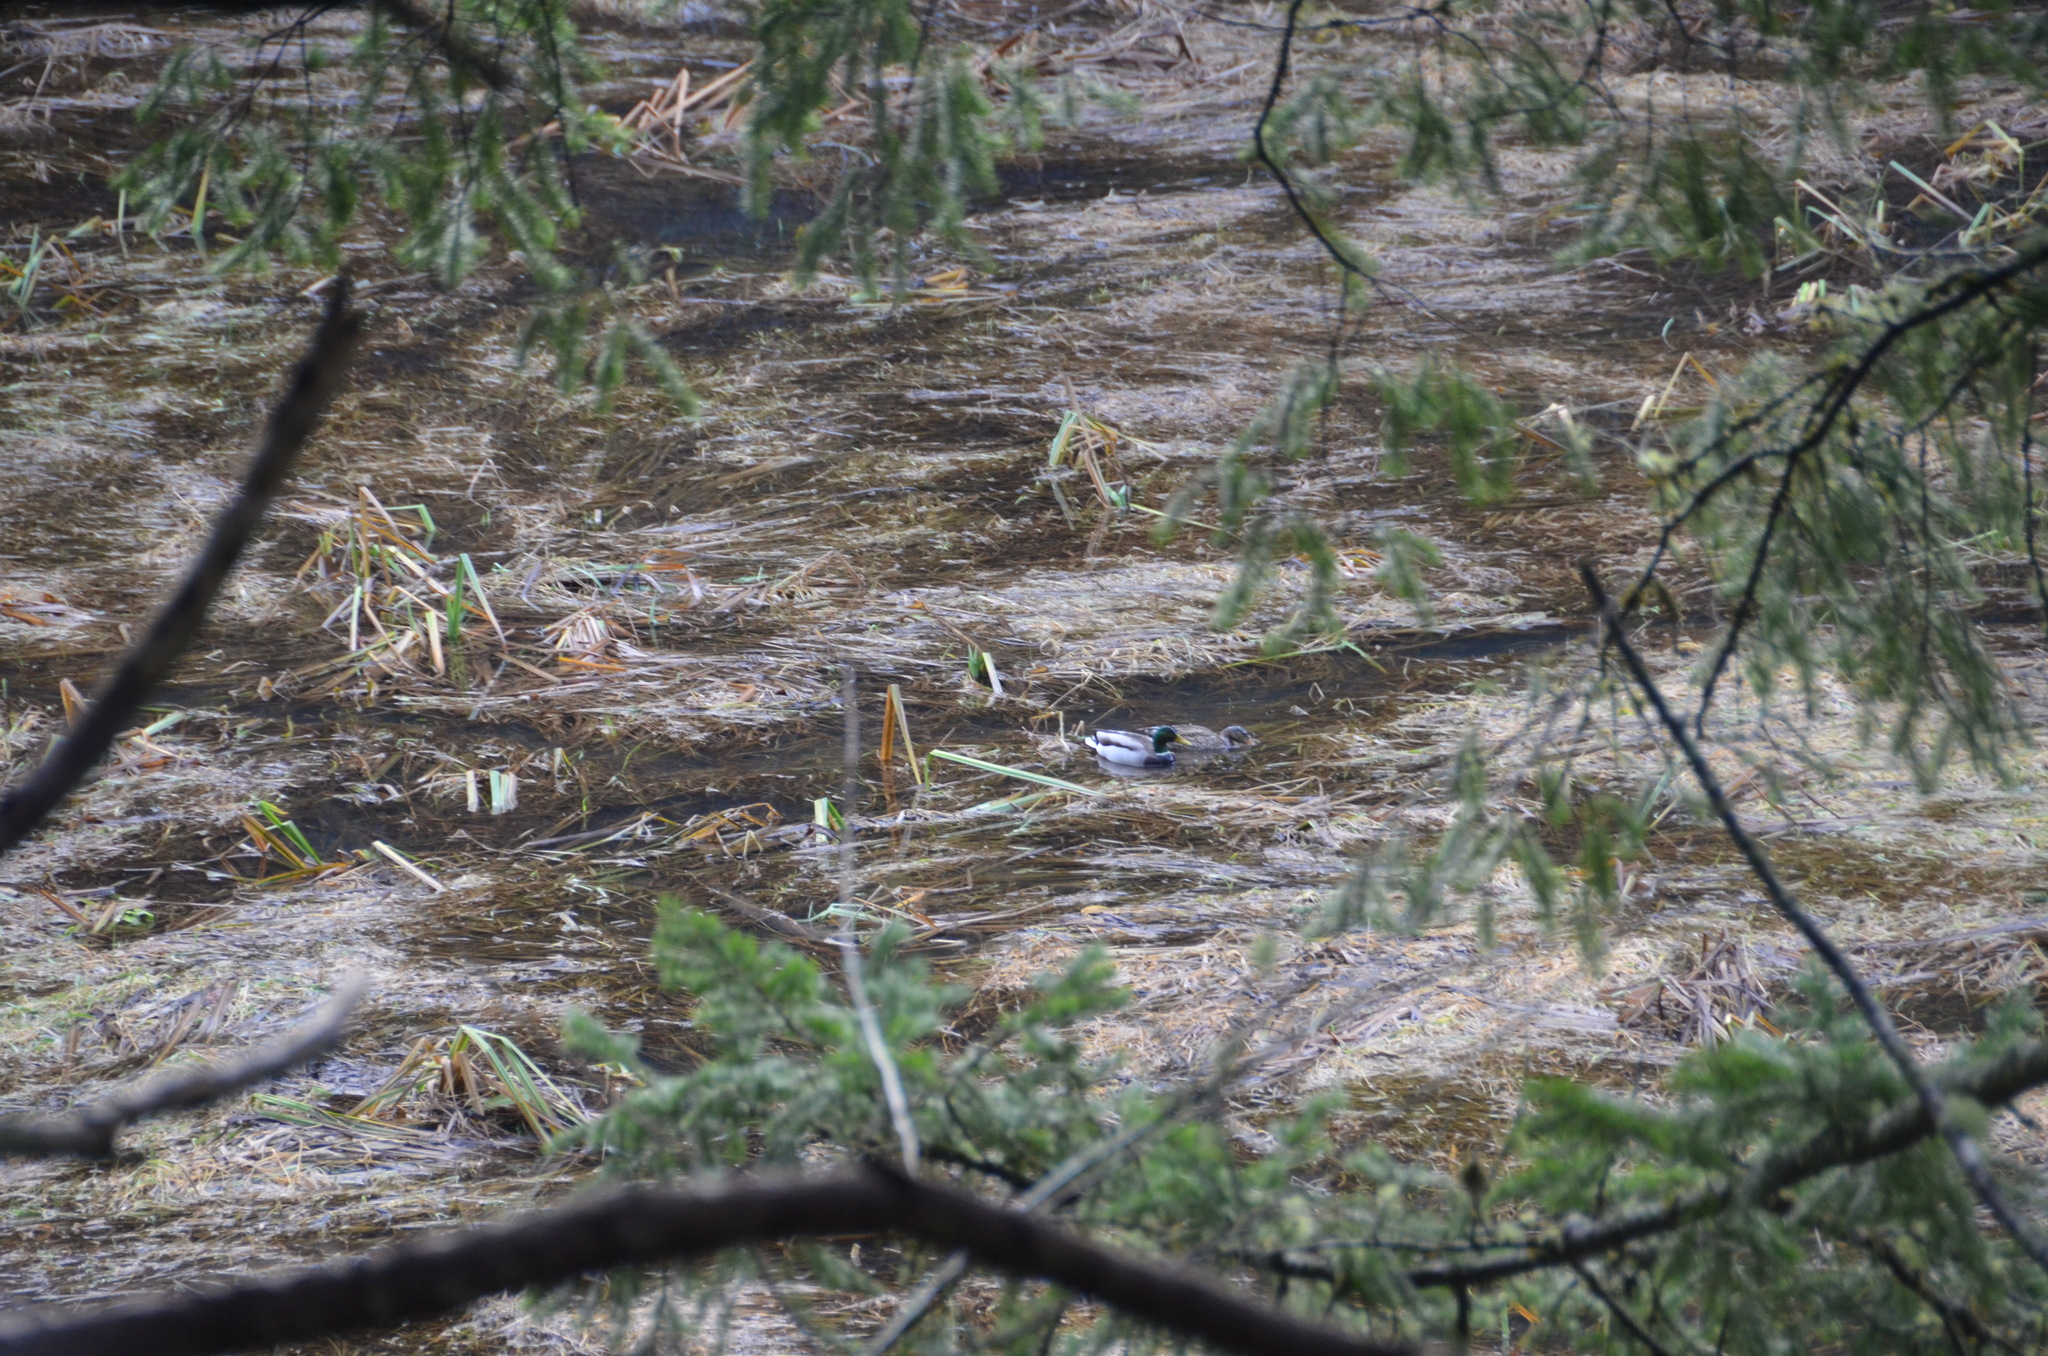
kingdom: Animalia
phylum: Chordata
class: Aves
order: Anseriformes
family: Anatidae
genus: Anas
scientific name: Anas platyrhynchos
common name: Mallard
